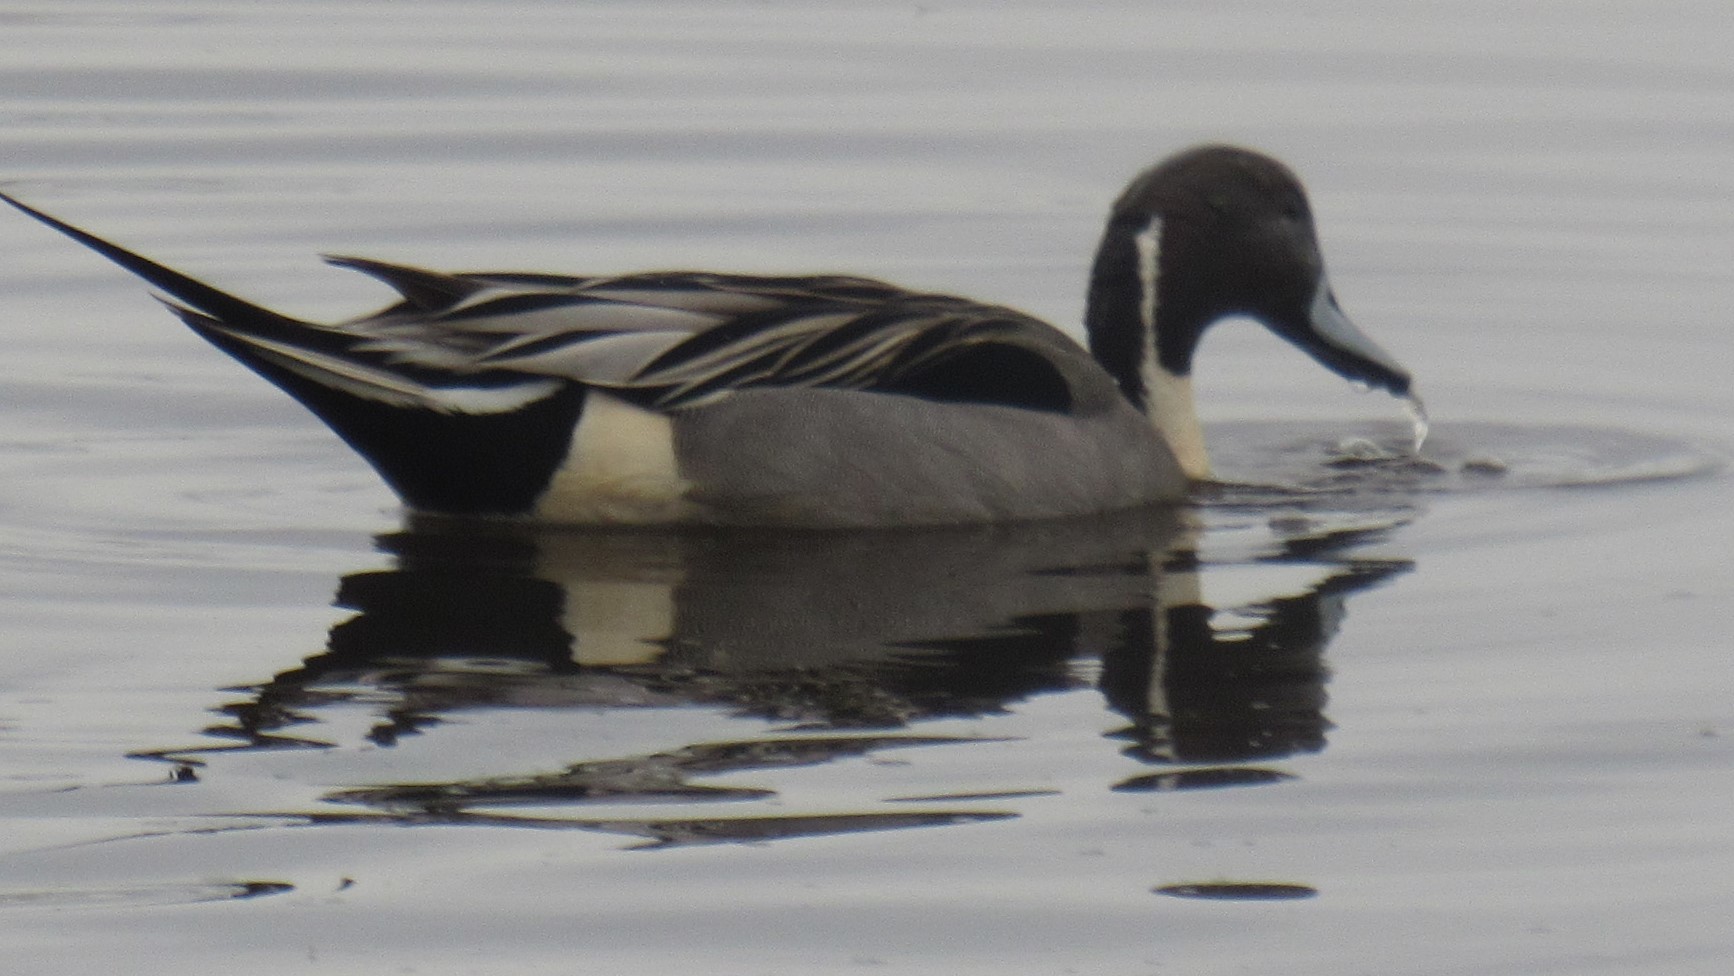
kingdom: Animalia
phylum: Chordata
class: Aves
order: Anseriformes
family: Anatidae
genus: Anas
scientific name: Anas acuta
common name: Northern pintail
